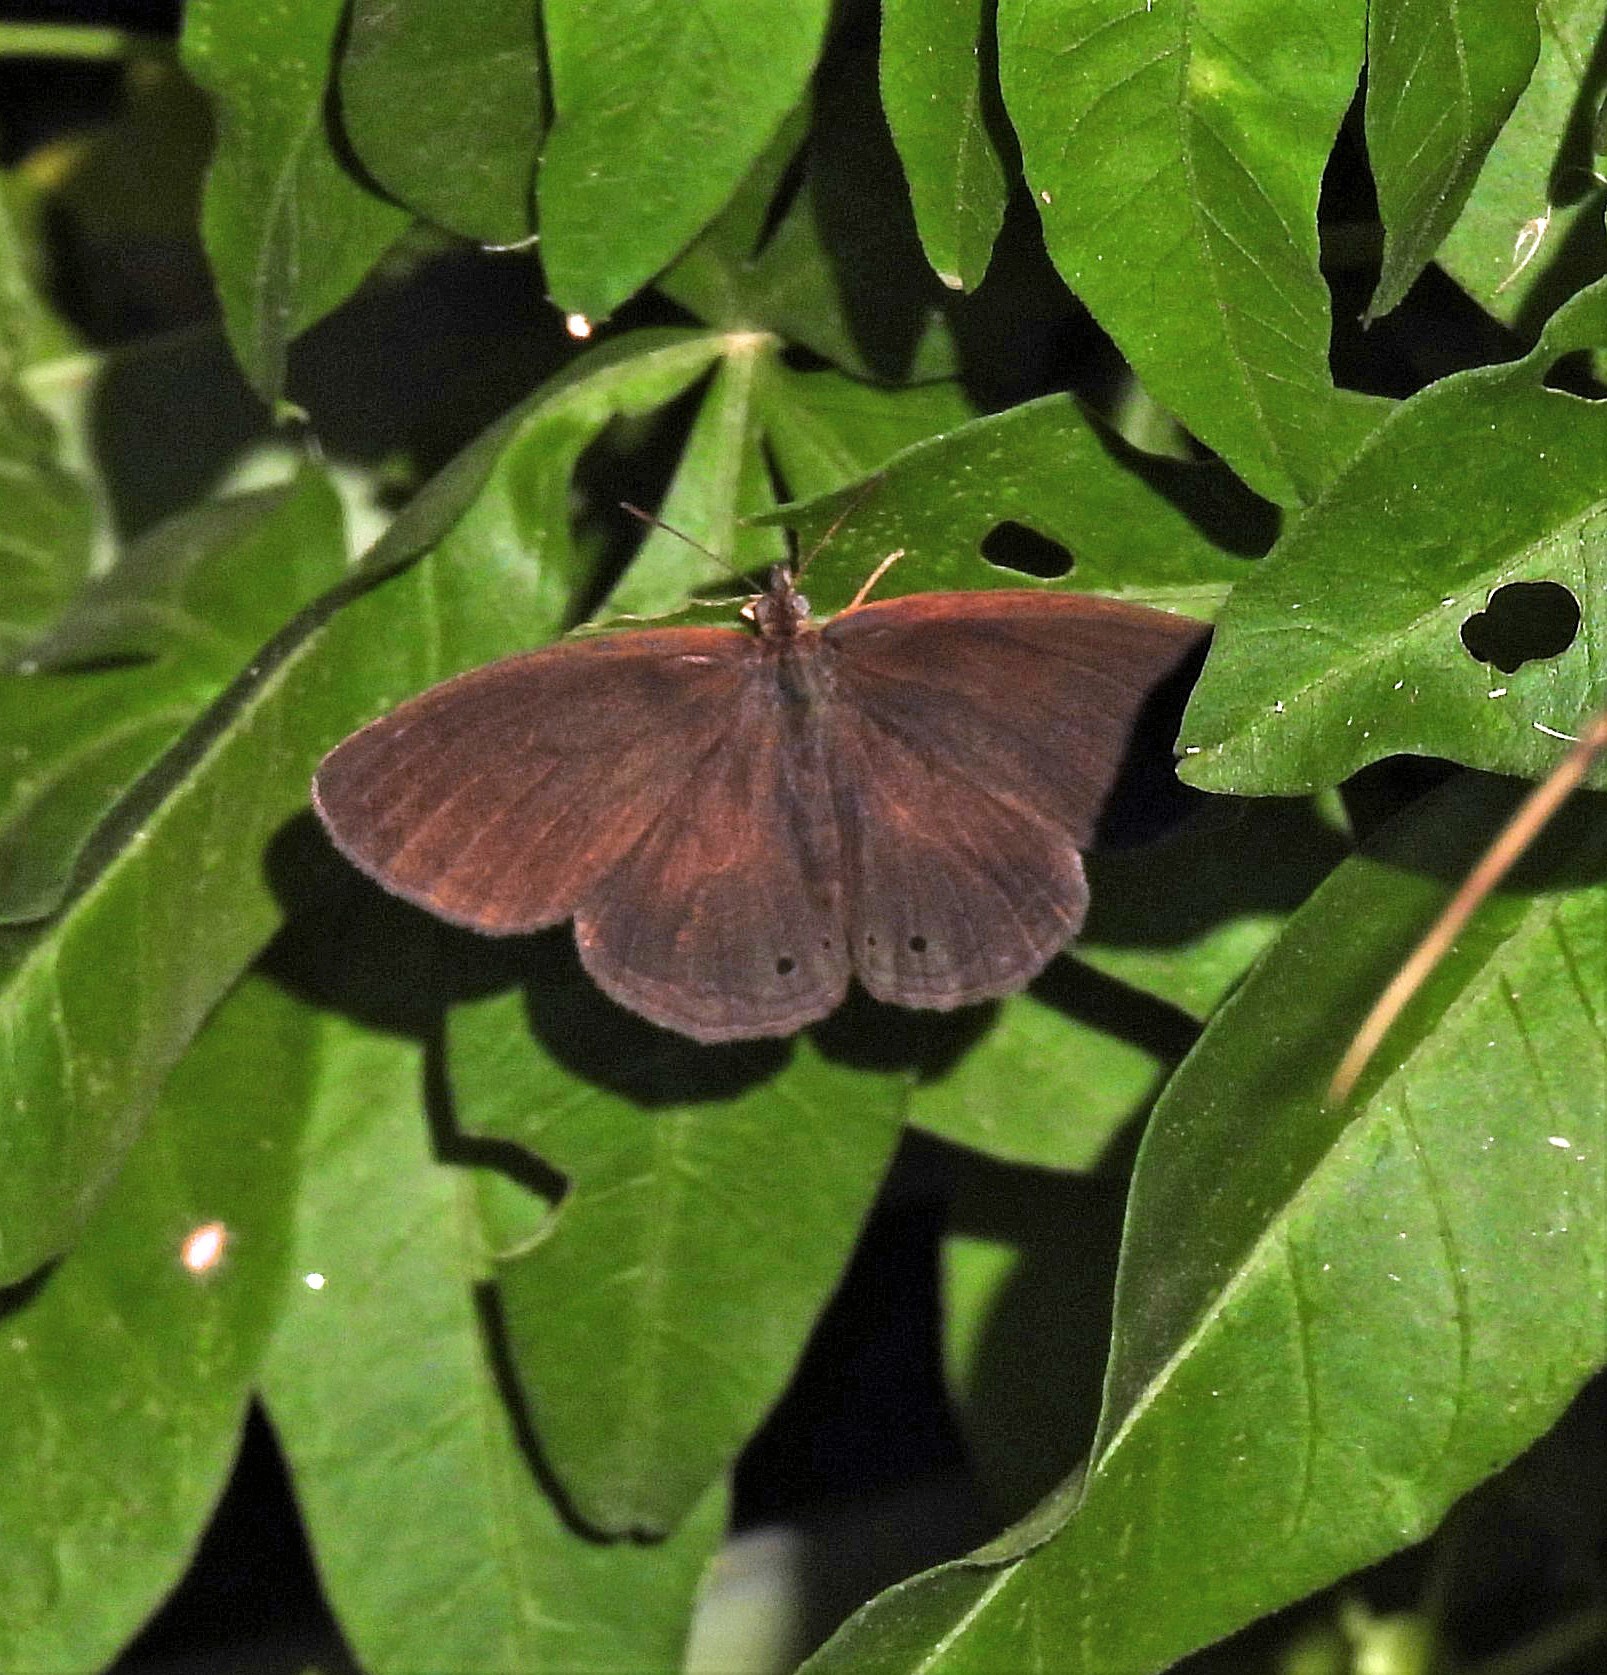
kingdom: Animalia
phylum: Arthropoda
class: Insecta
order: Lepidoptera
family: Nymphalidae
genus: Yphthimoides
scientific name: Yphthimoides celmis
